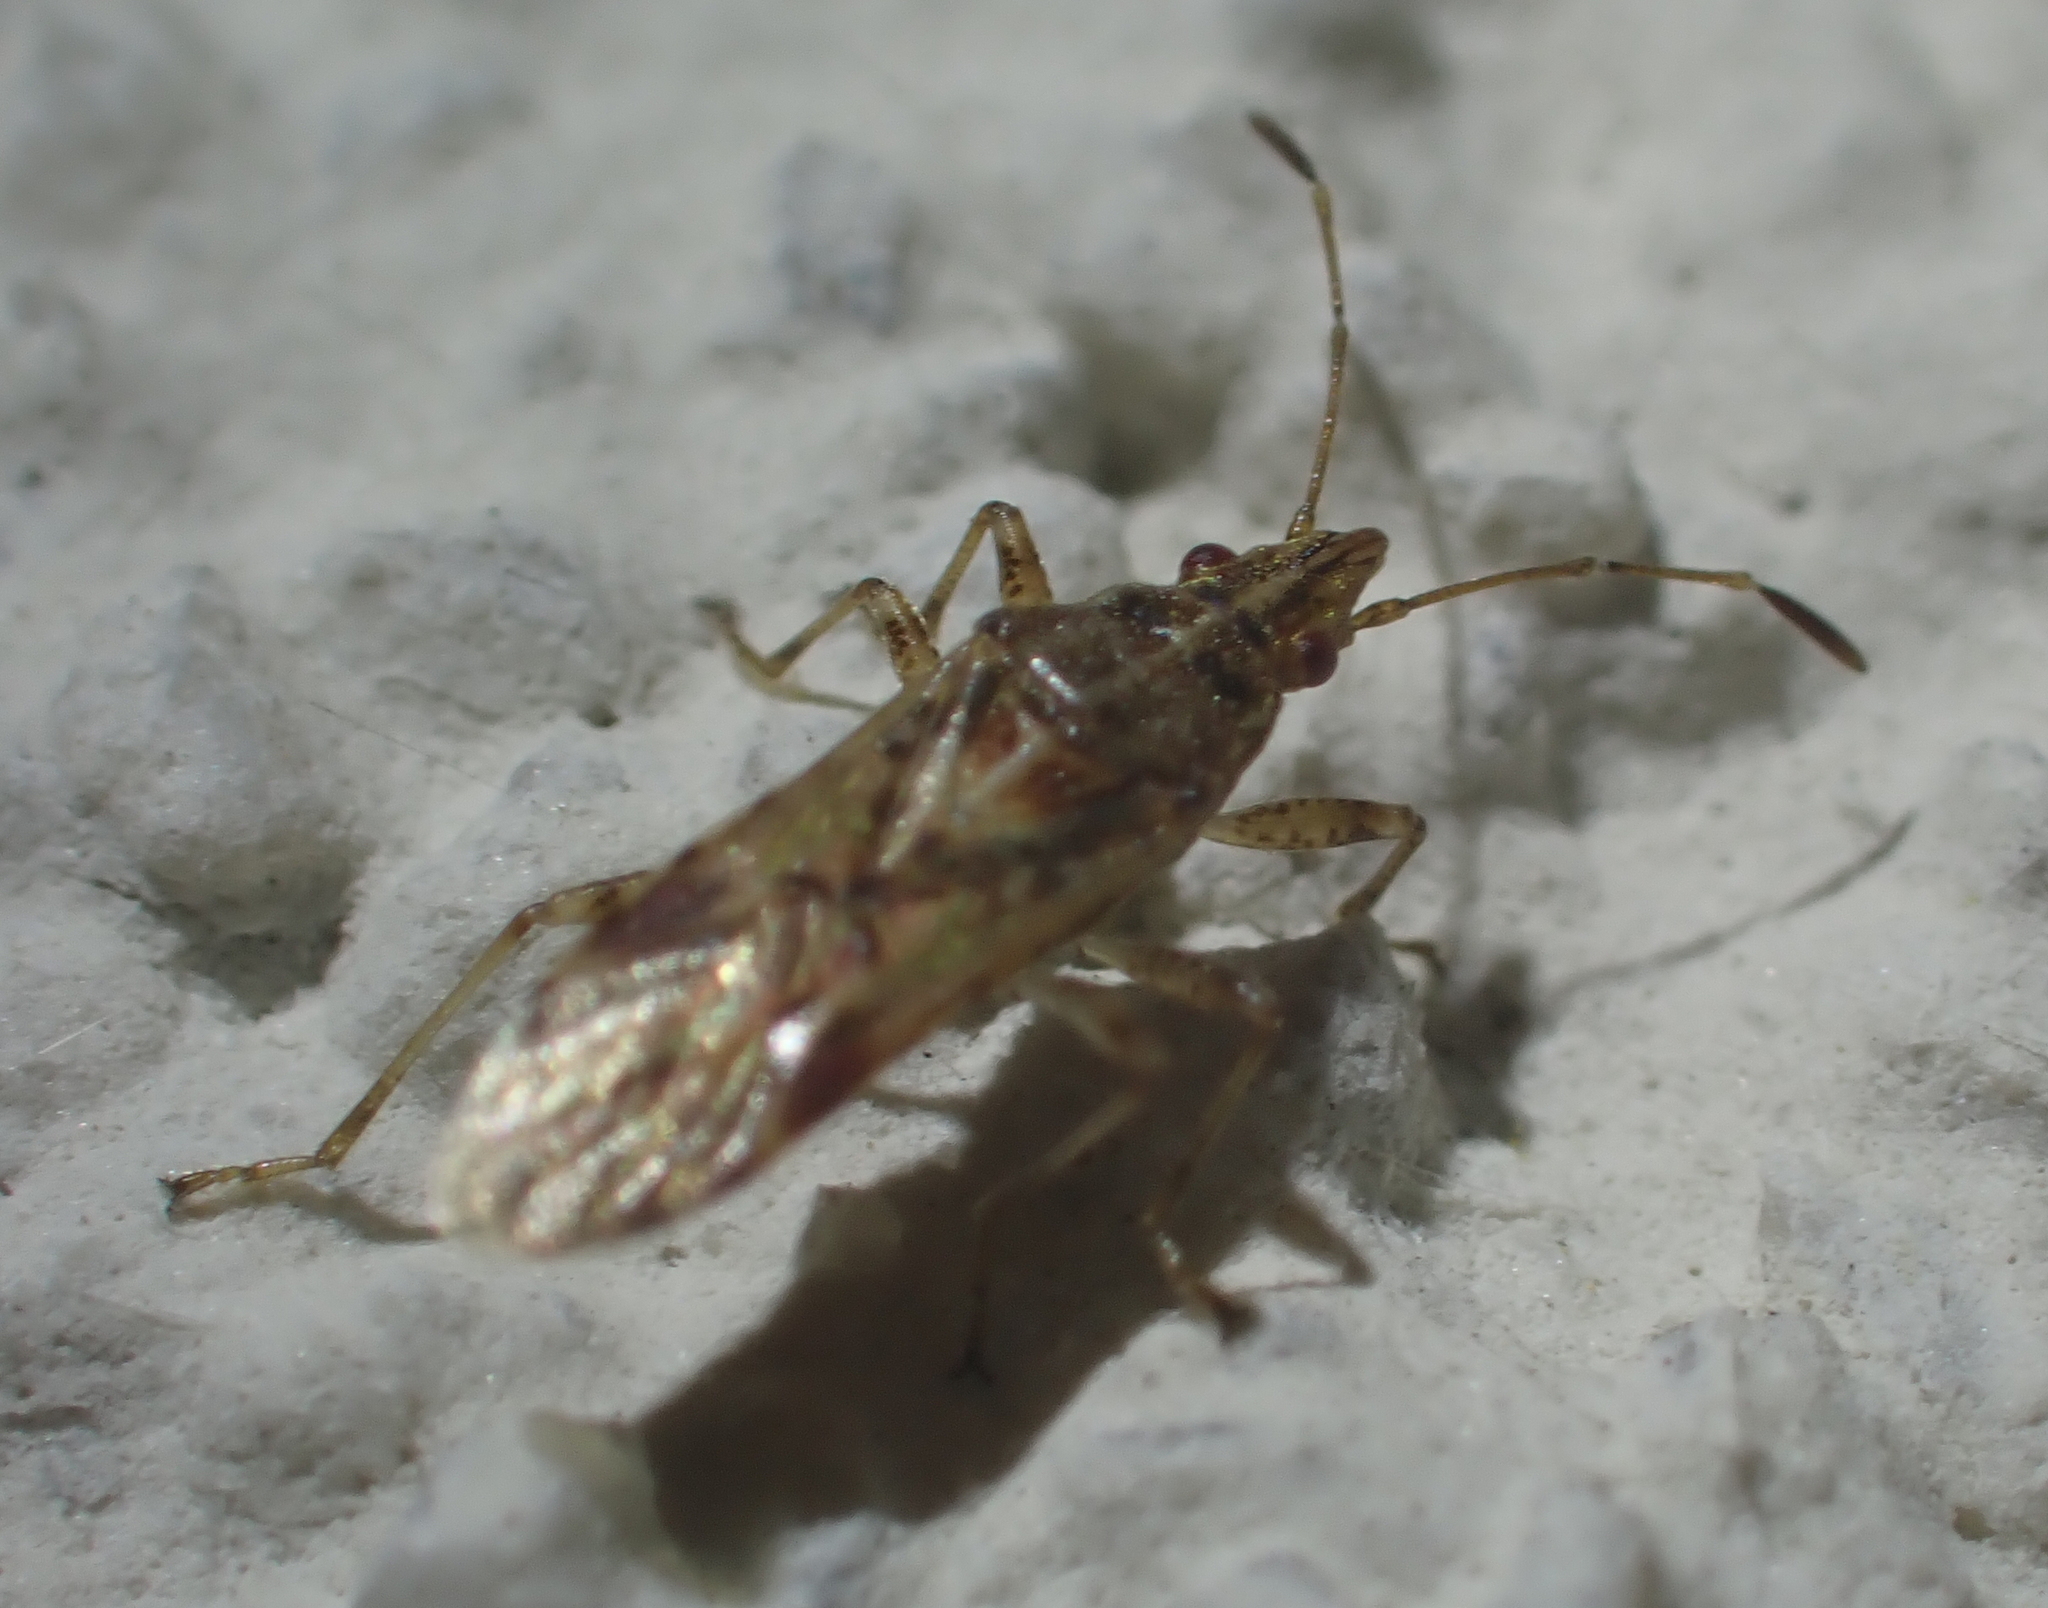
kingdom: Animalia
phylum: Arthropoda
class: Insecta
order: Hemiptera
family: Lygaeidae
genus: Belonochilus
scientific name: Belonochilus numenius
